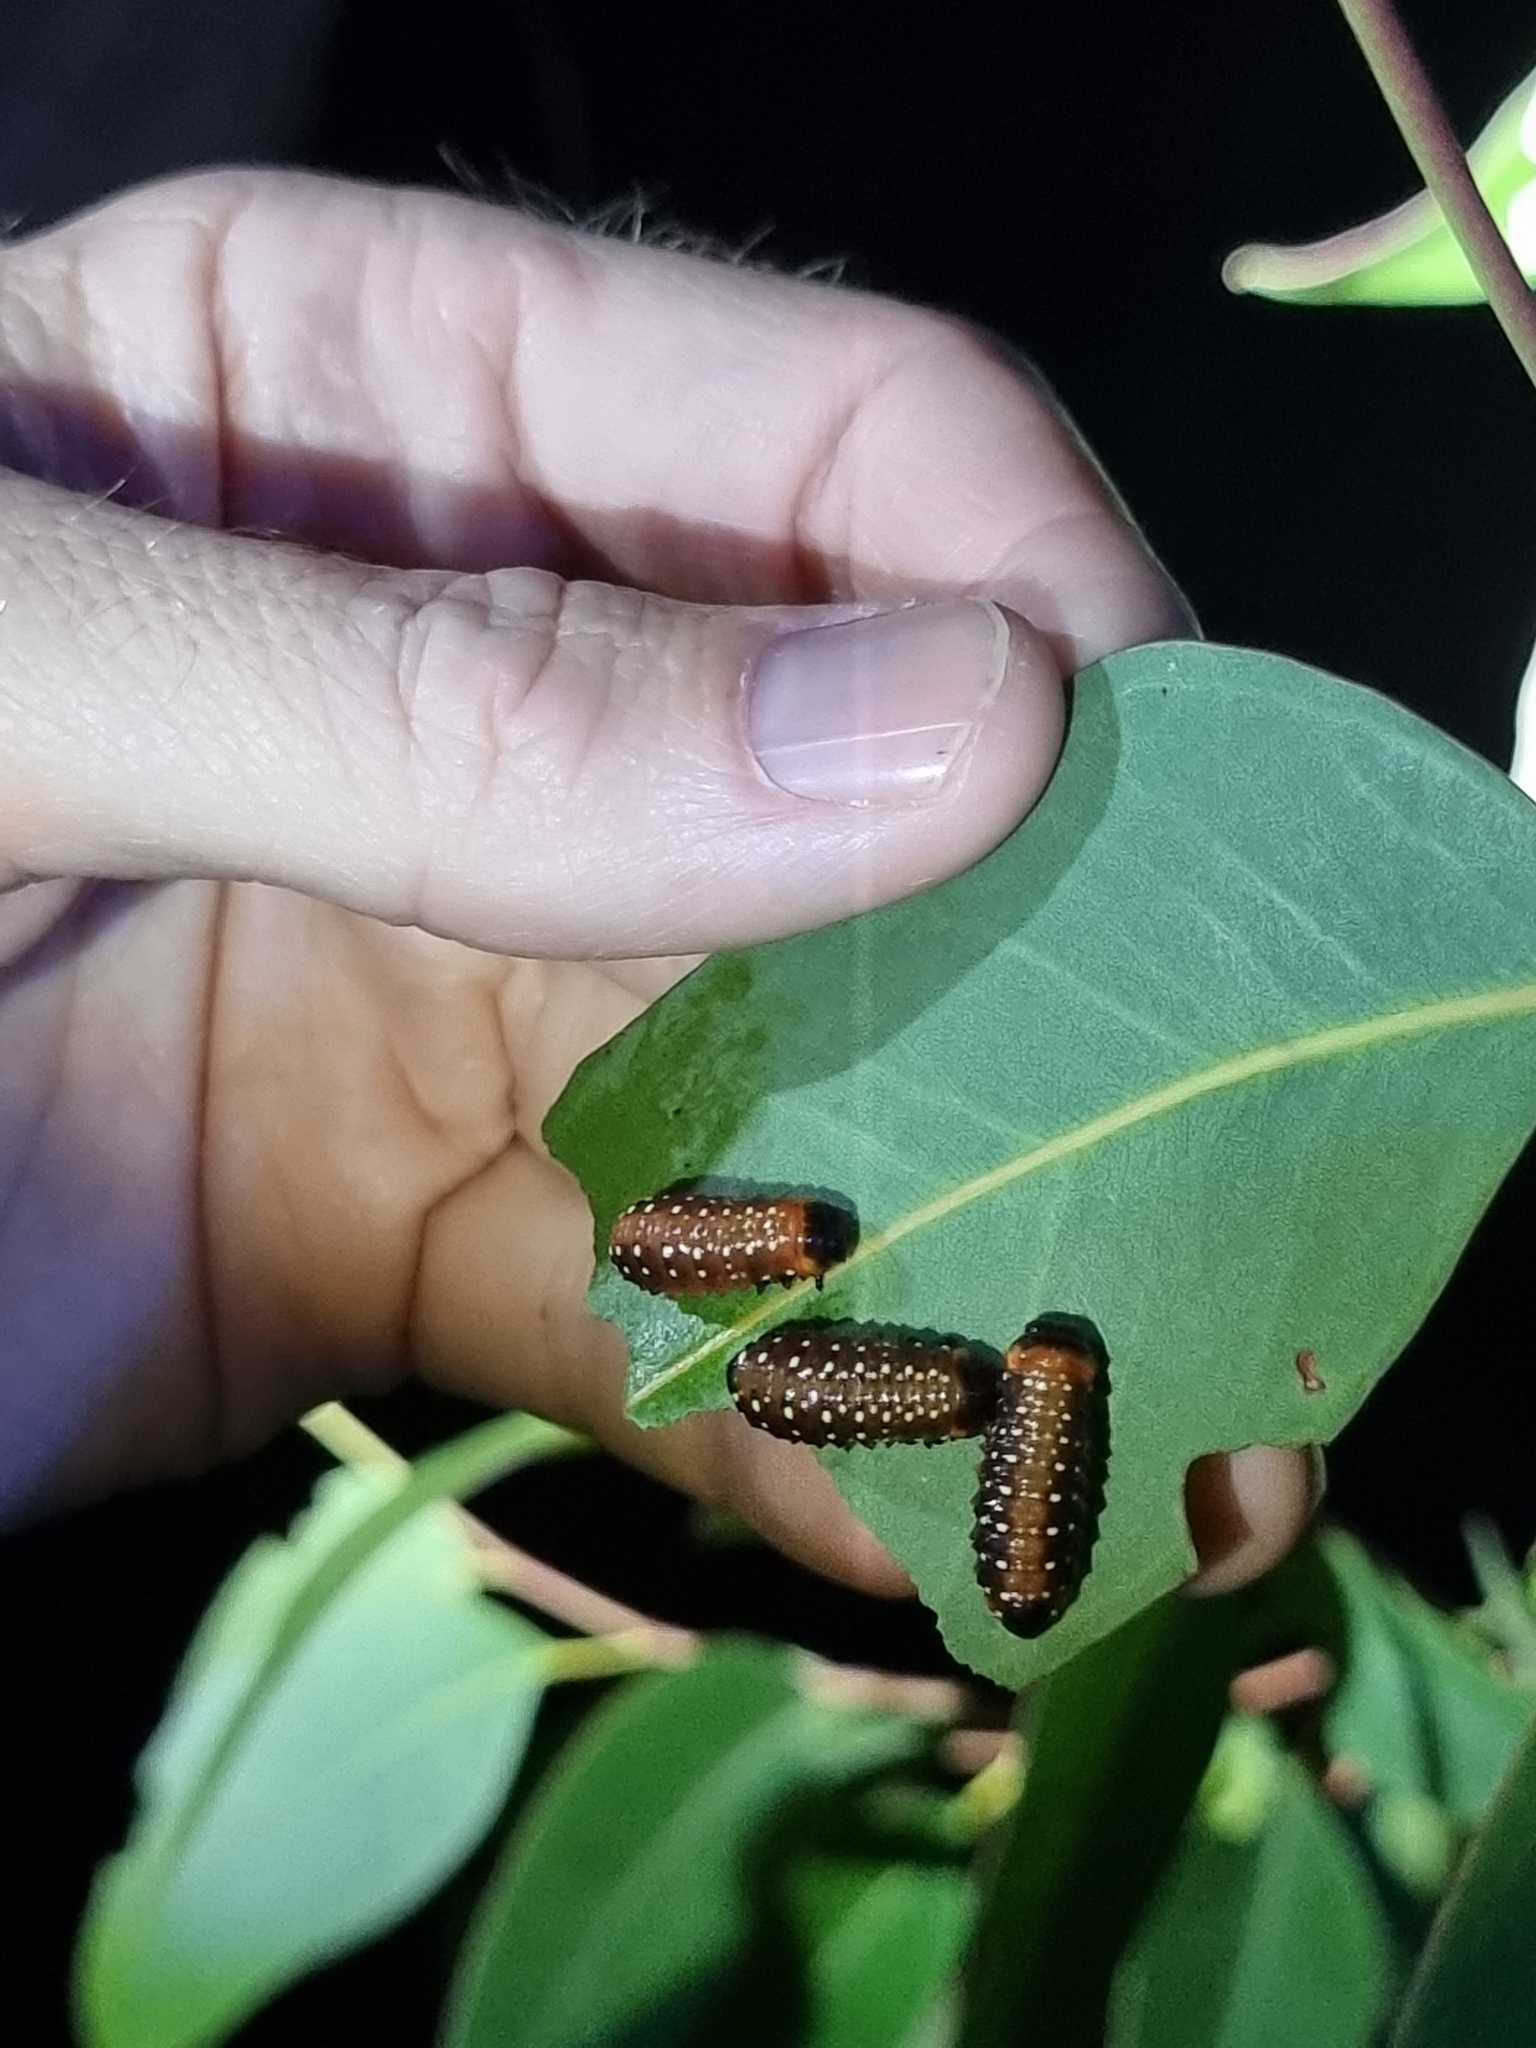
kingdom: Animalia
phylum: Arthropoda
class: Insecta
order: Coleoptera
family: Chrysomelidae
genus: Paropsis
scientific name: Paropsis
